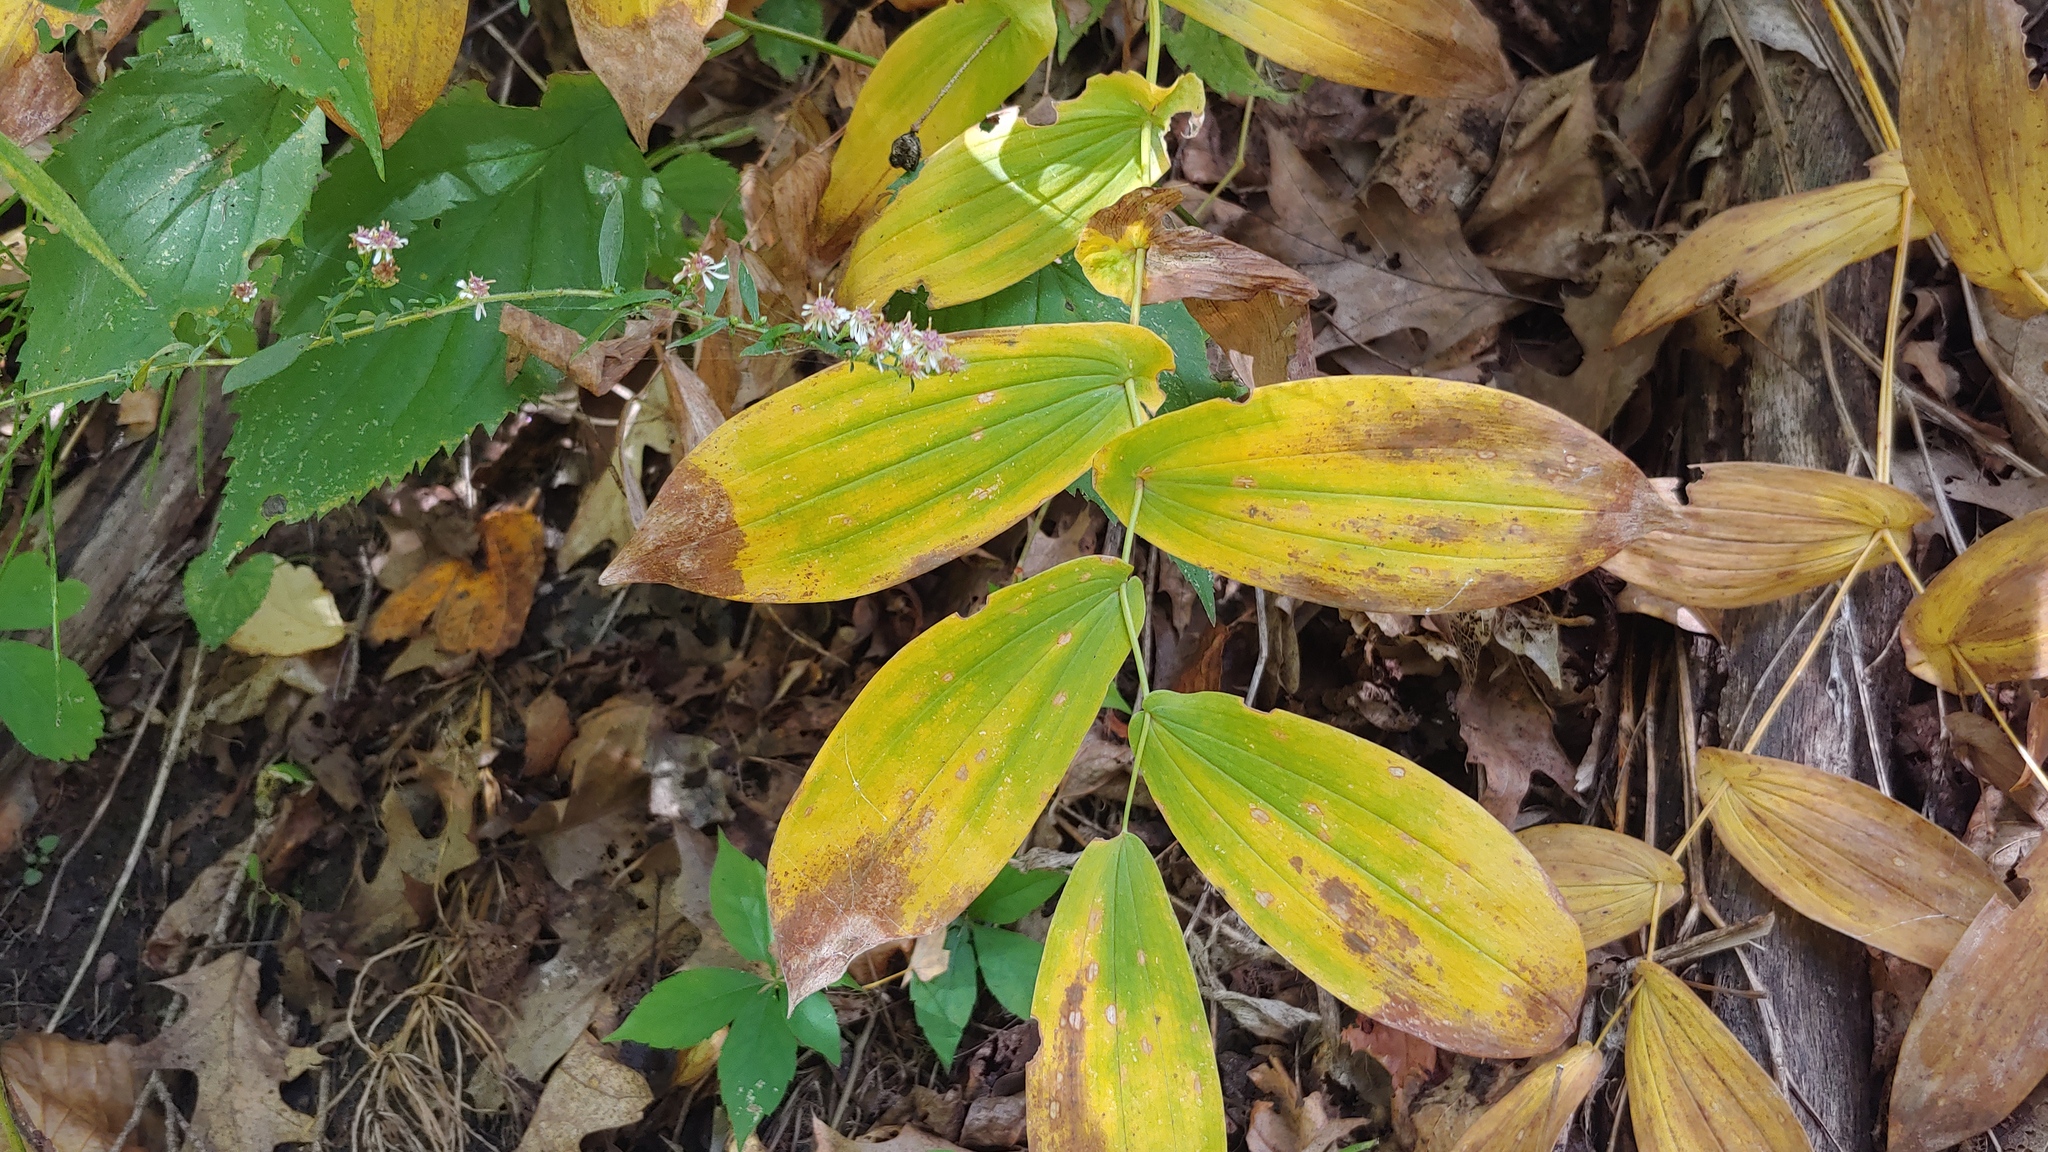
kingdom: Plantae
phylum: Tracheophyta
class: Liliopsida
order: Liliales
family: Colchicaceae
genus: Uvularia
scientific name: Uvularia grandiflora
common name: Bellwort
